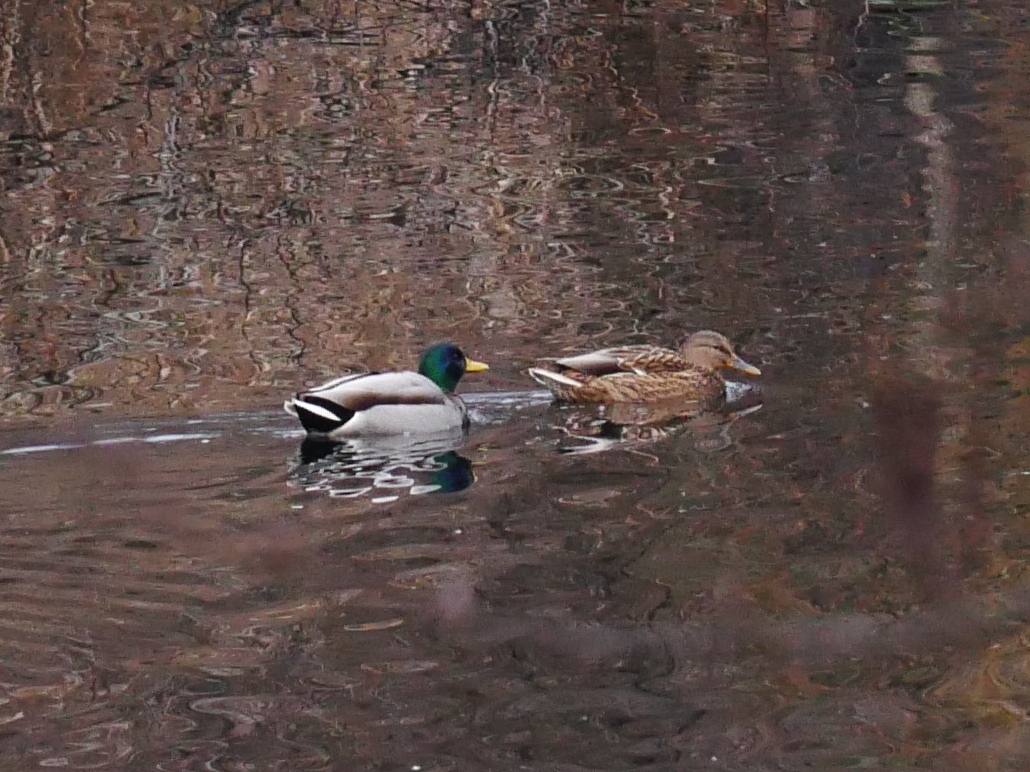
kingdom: Animalia
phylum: Chordata
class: Aves
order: Anseriformes
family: Anatidae
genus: Anas
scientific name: Anas platyrhynchos
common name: Mallard
